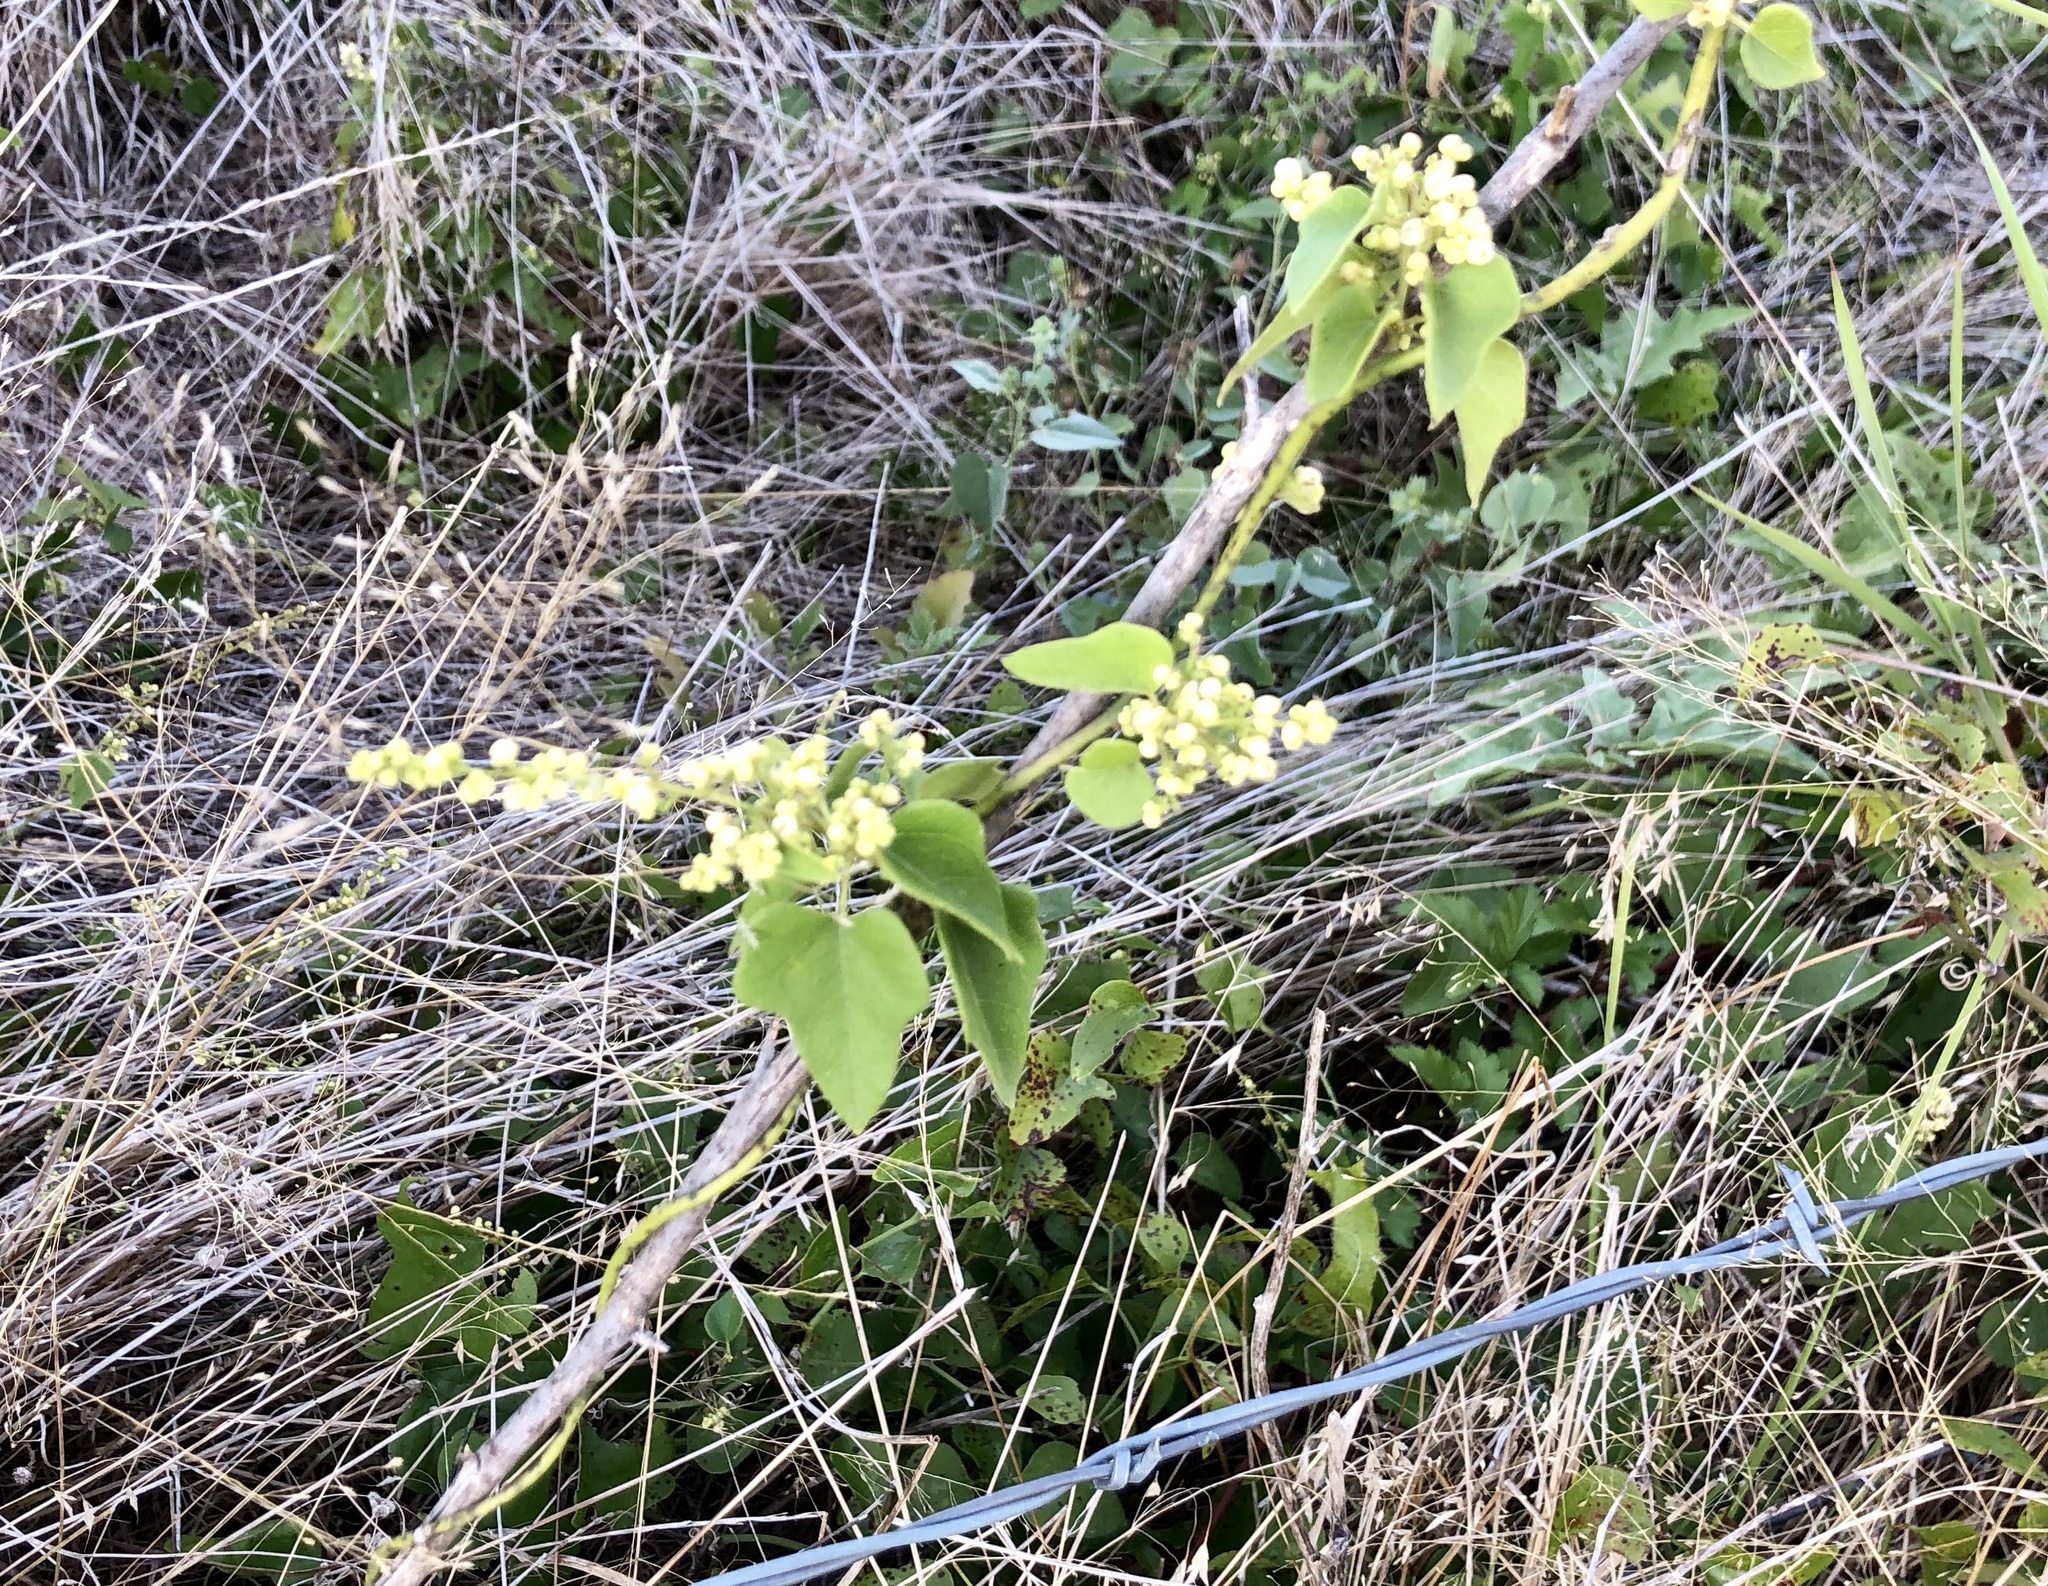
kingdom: Plantae
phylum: Tracheophyta
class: Magnoliopsida
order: Ranunculales
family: Menispermaceae
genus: Cocculus
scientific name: Cocculus carolinus
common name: Carolina moonseed
